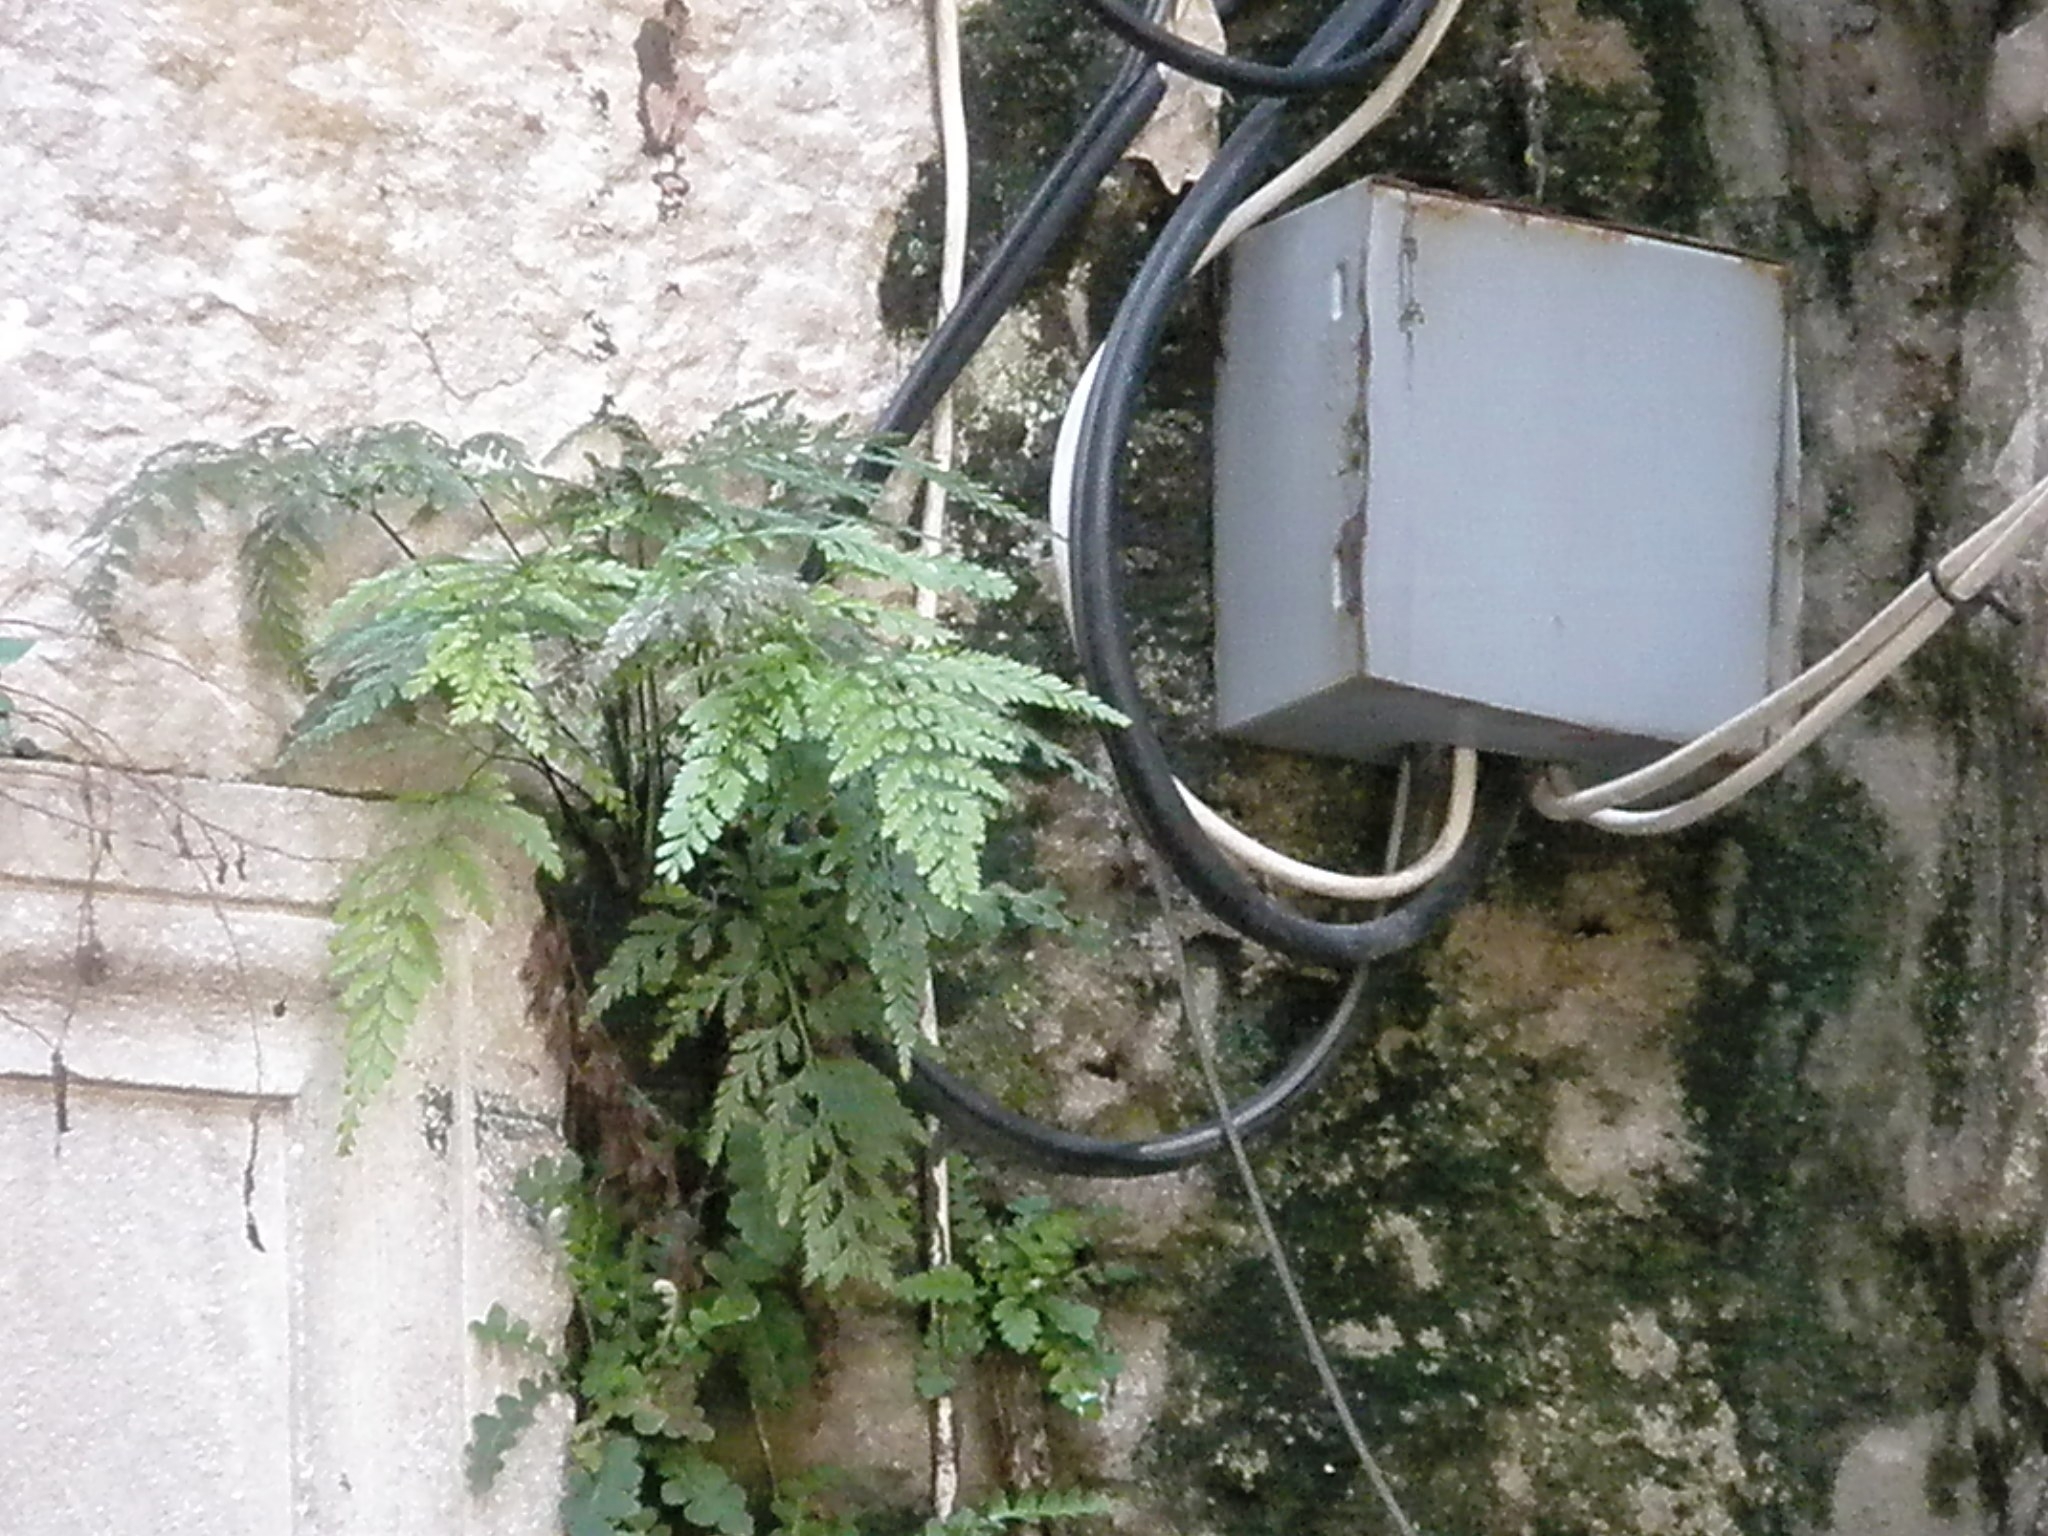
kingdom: Plantae
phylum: Tracheophyta
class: Polypodiopsida
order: Polypodiales
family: Aspleniaceae
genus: Asplenium
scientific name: Asplenium adiantum-nigrum
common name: Black spleenwort
